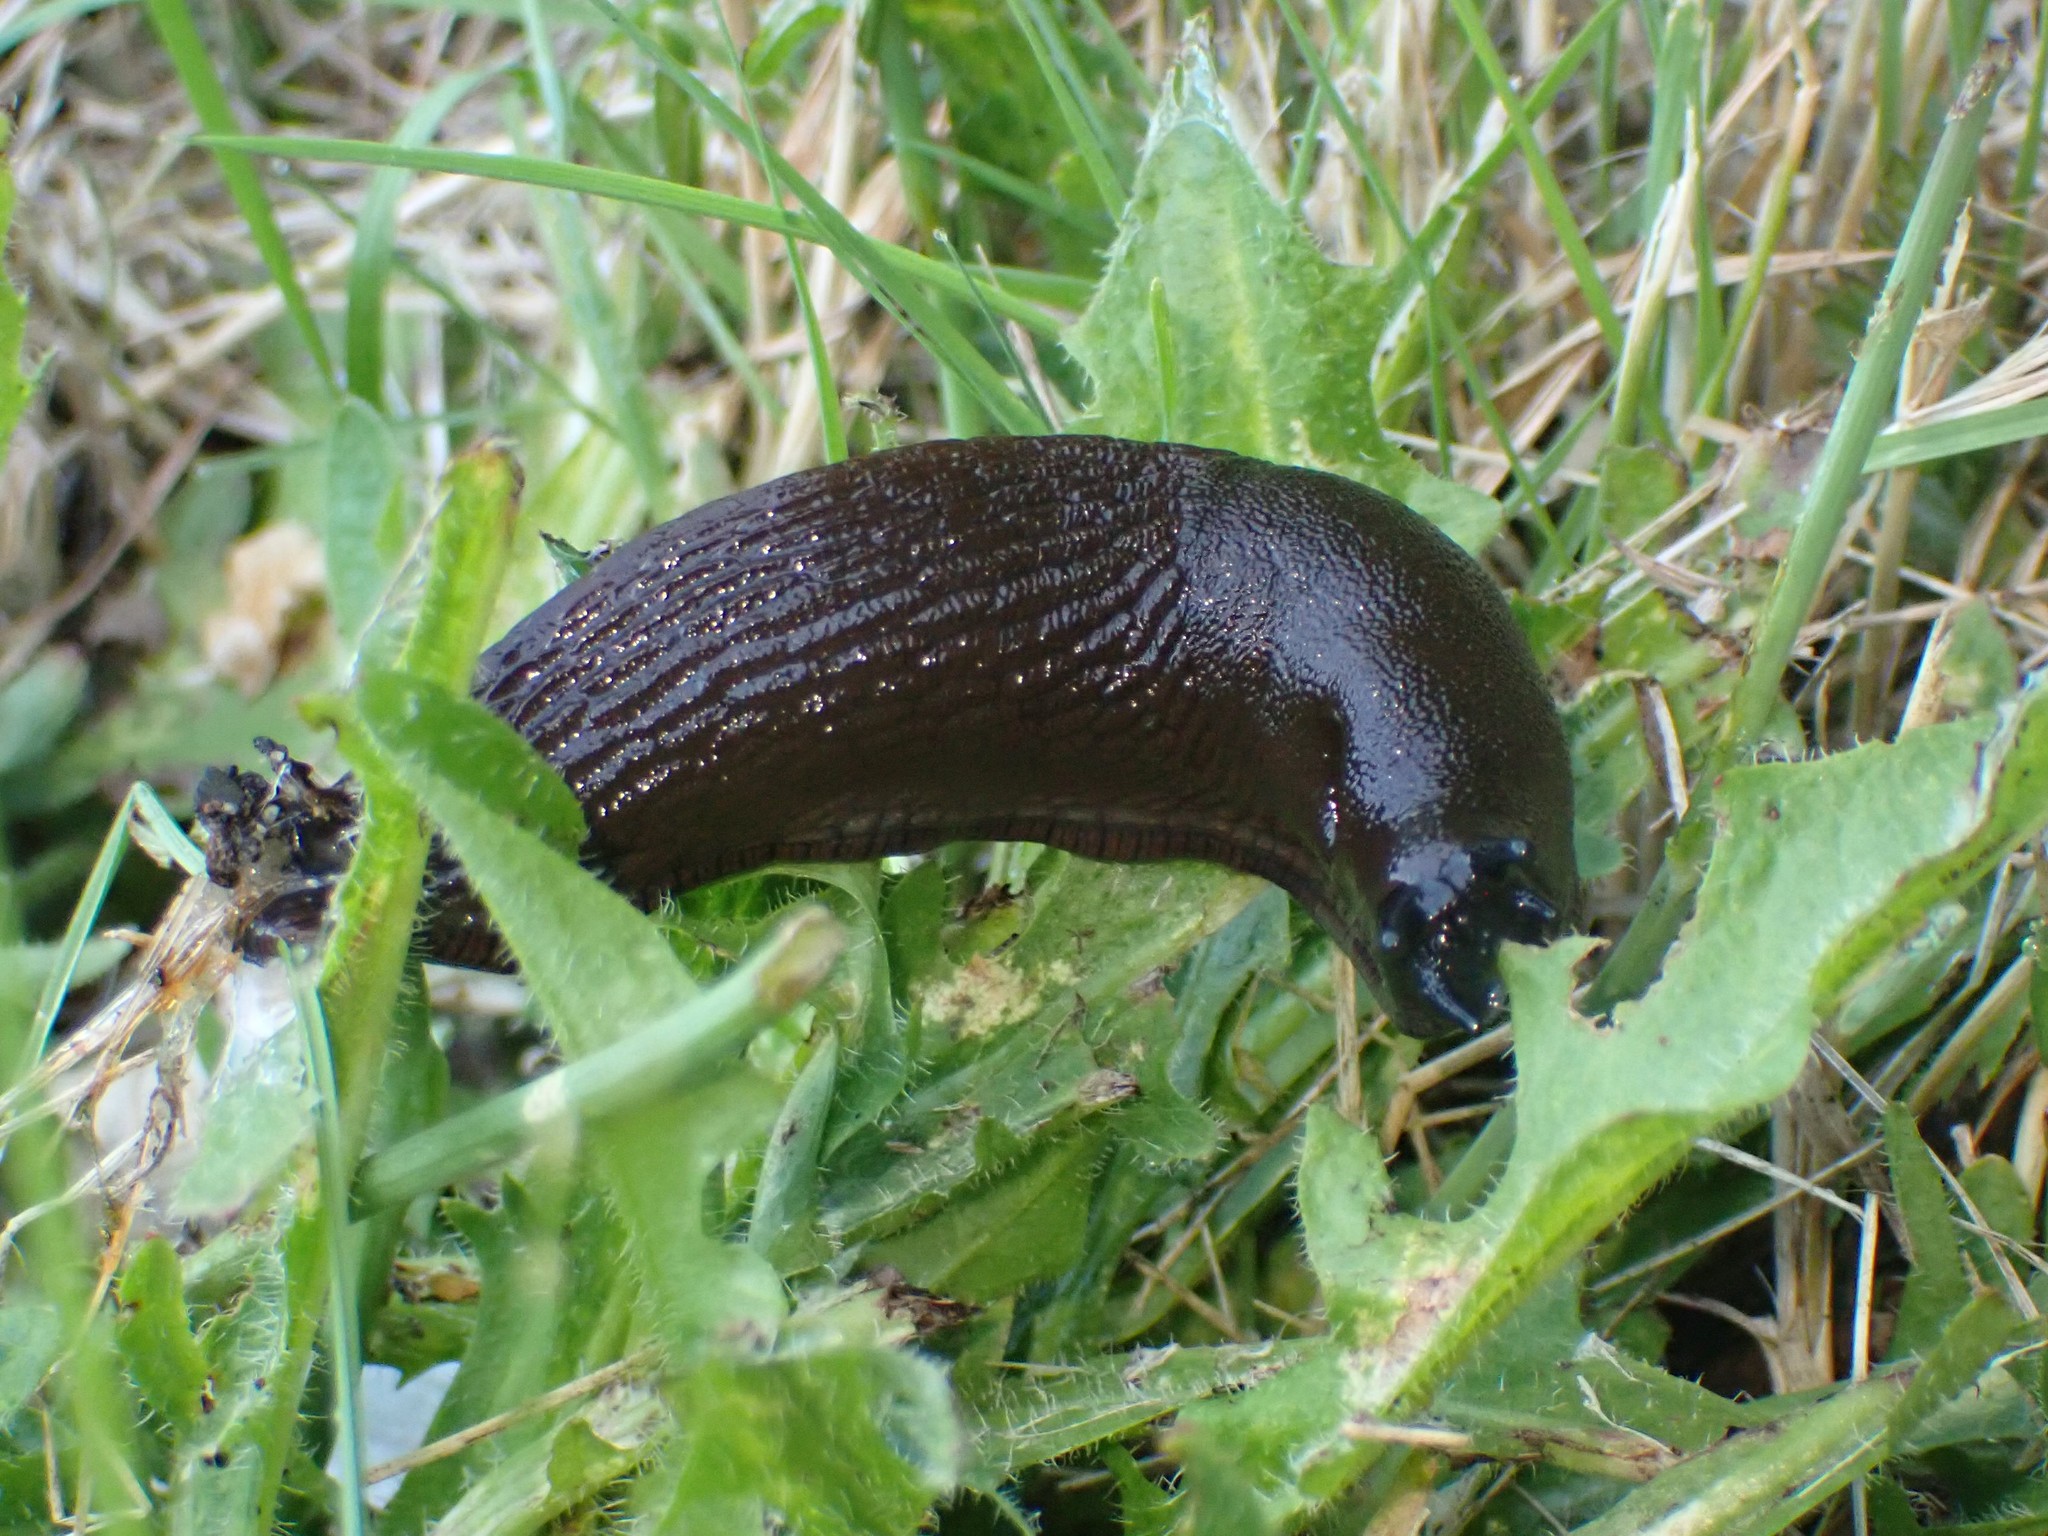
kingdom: Animalia
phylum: Mollusca
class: Gastropoda
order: Stylommatophora
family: Arionidae
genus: Arion
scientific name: Arion
